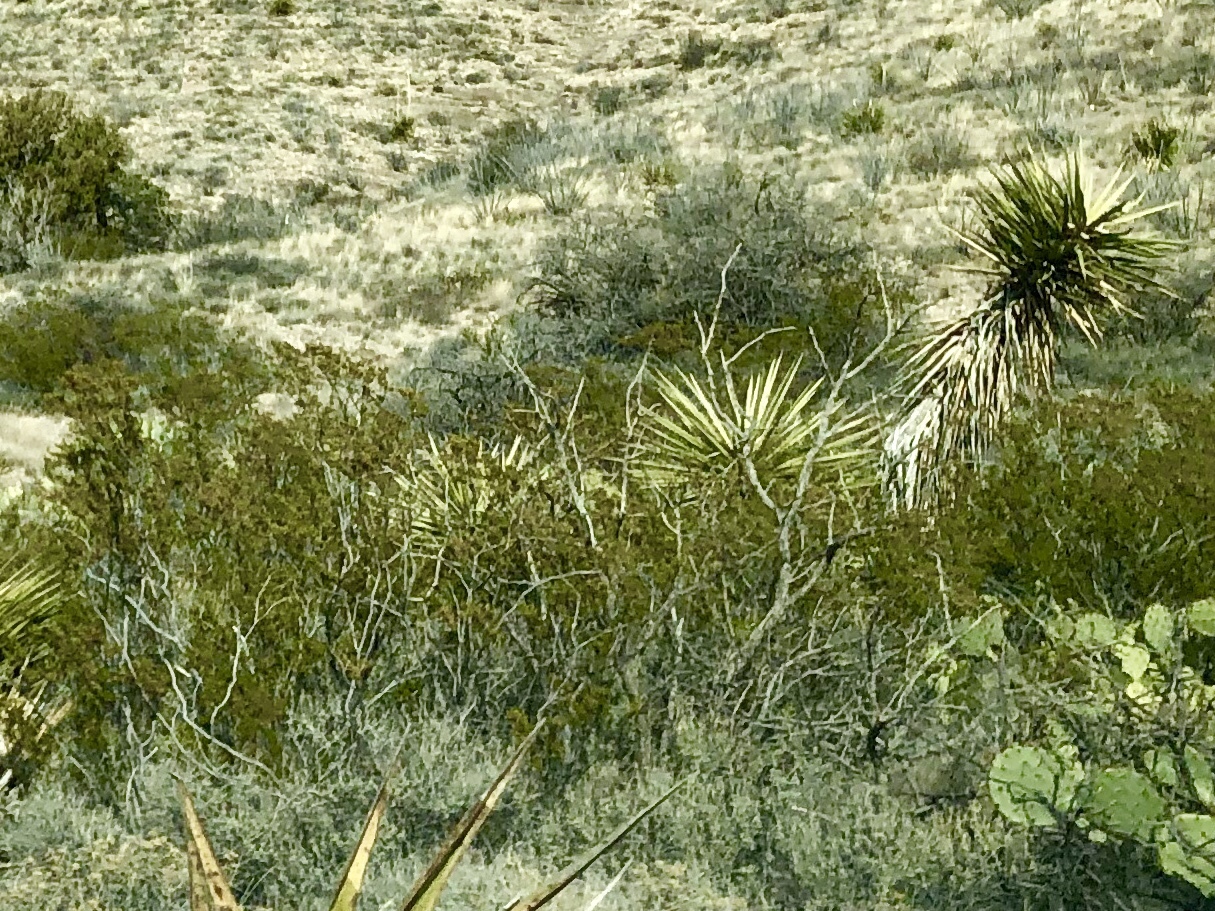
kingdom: Plantae
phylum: Tracheophyta
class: Magnoliopsida
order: Zygophyllales
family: Zygophyllaceae
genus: Larrea
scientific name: Larrea tridentata
